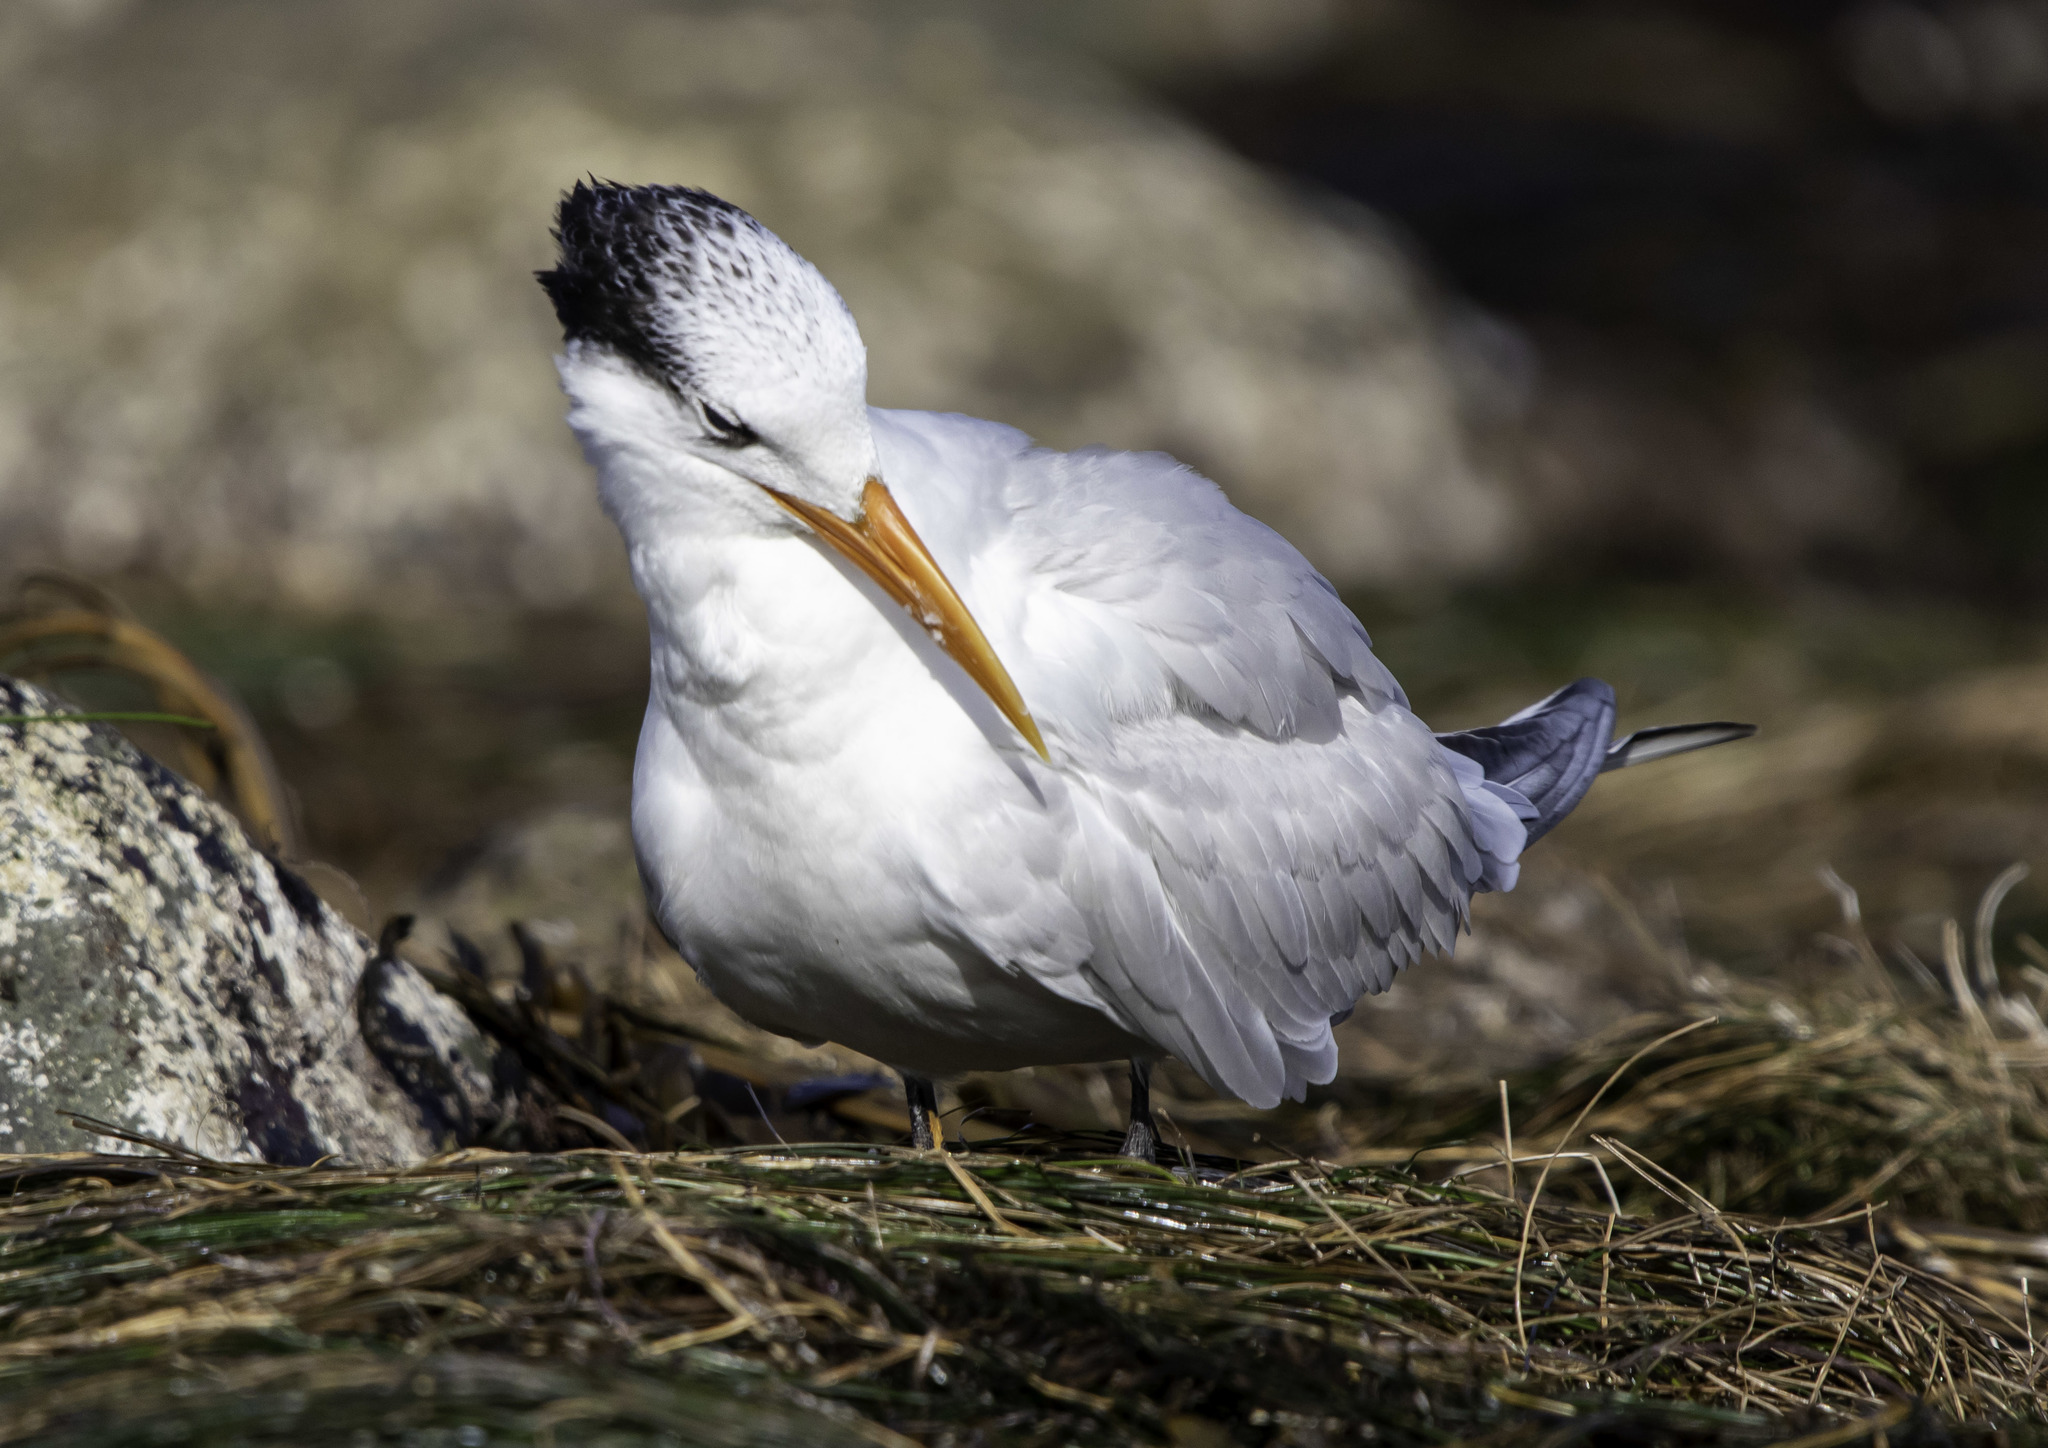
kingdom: Animalia
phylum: Chordata
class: Aves
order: Charadriiformes
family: Laridae
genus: Thalasseus
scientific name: Thalasseus maximus
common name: Royal tern
